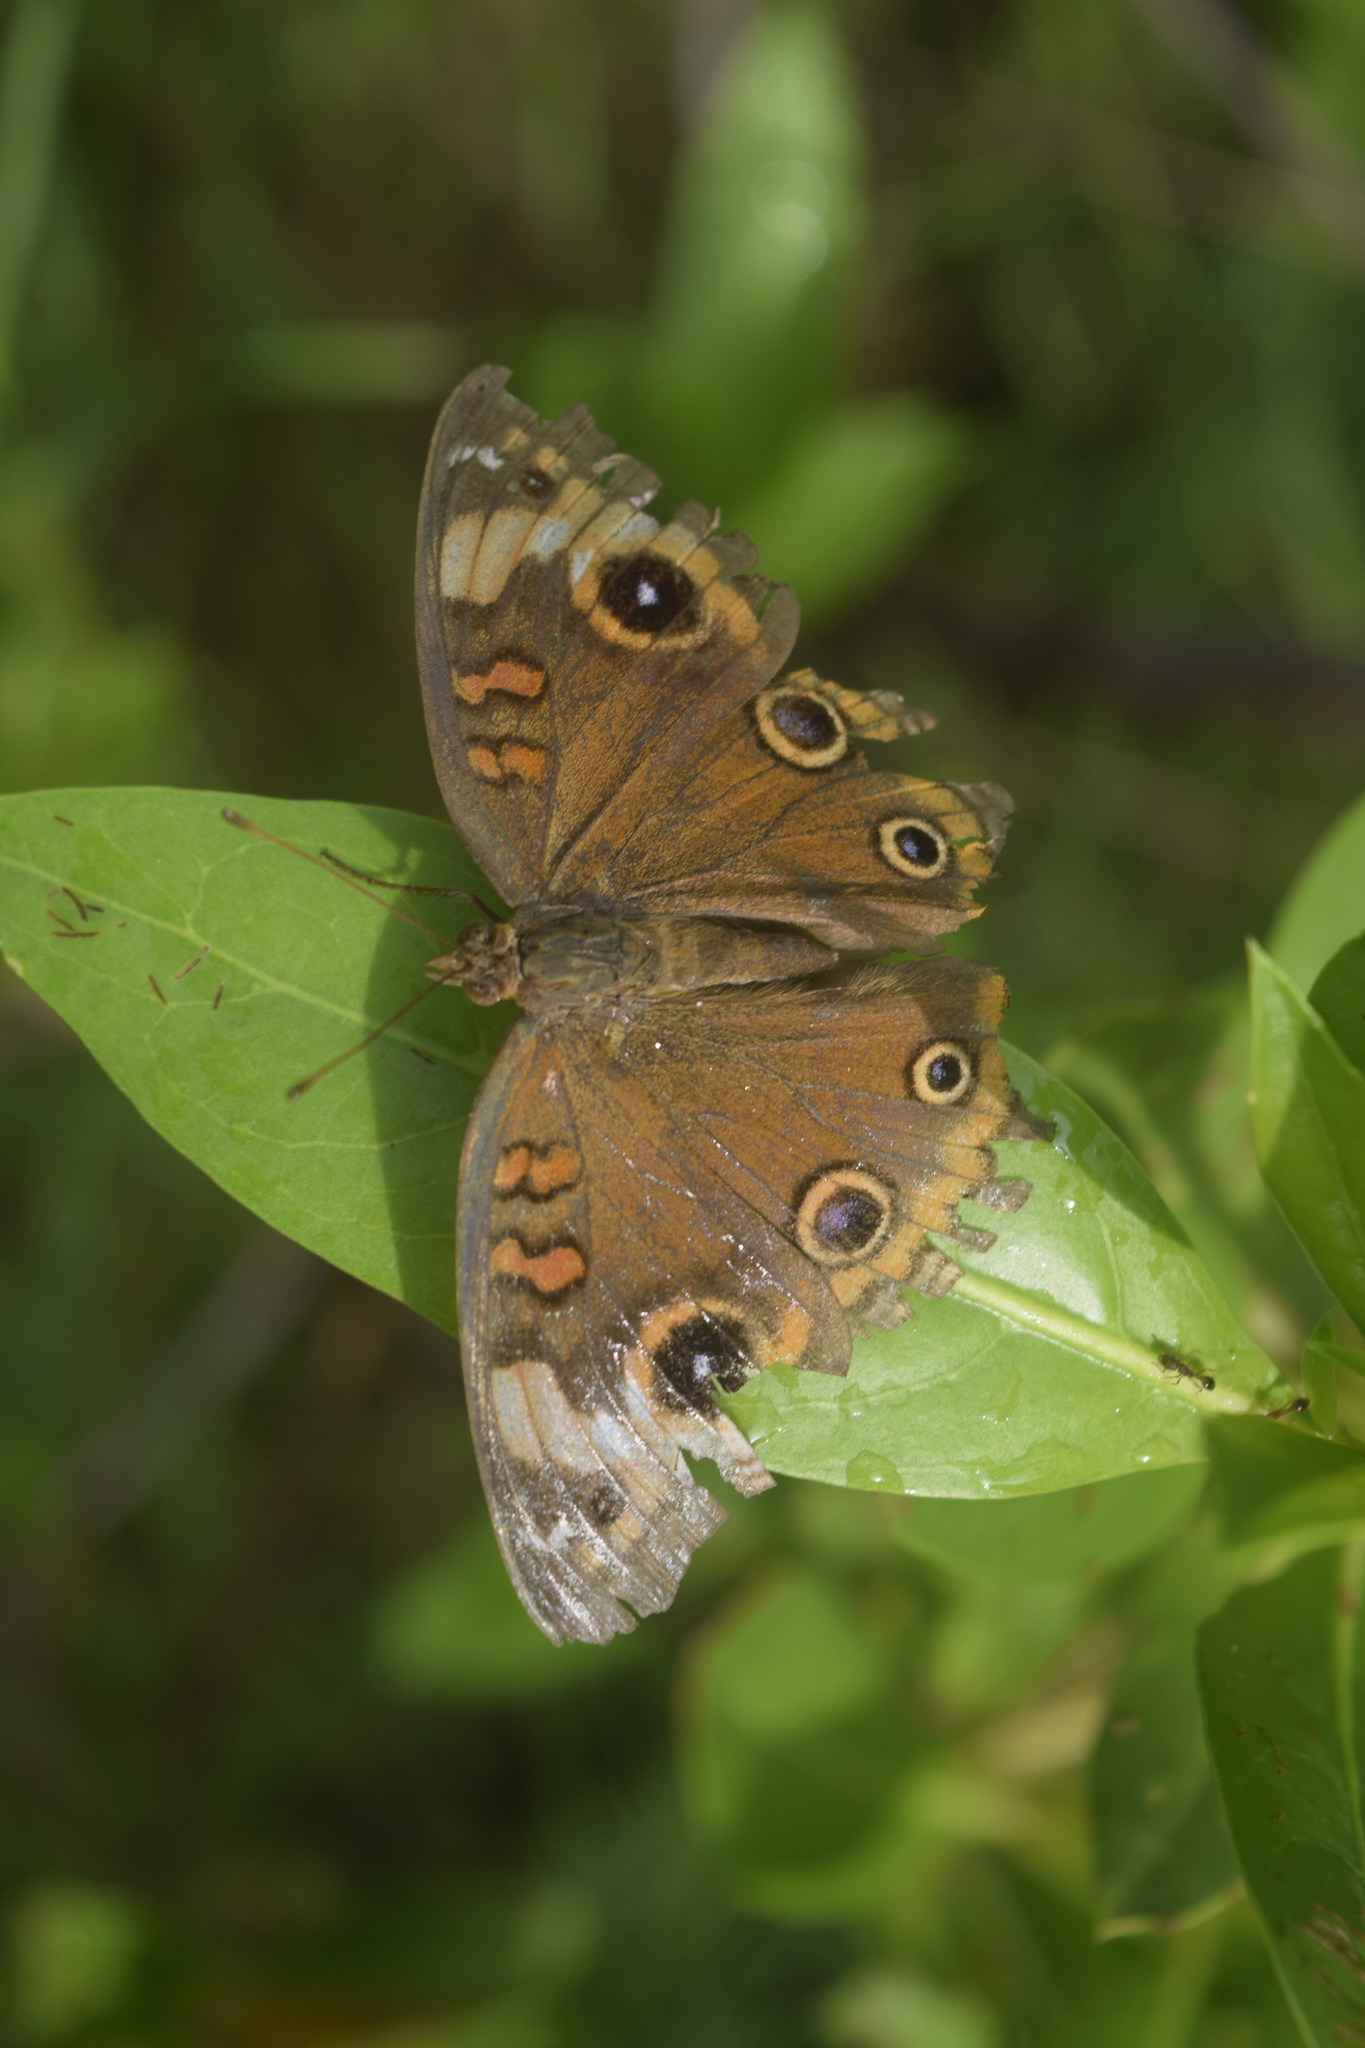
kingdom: Animalia
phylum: Arthropoda
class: Insecta
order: Lepidoptera
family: Nymphalidae
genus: Junonia
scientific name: Junonia neildi
